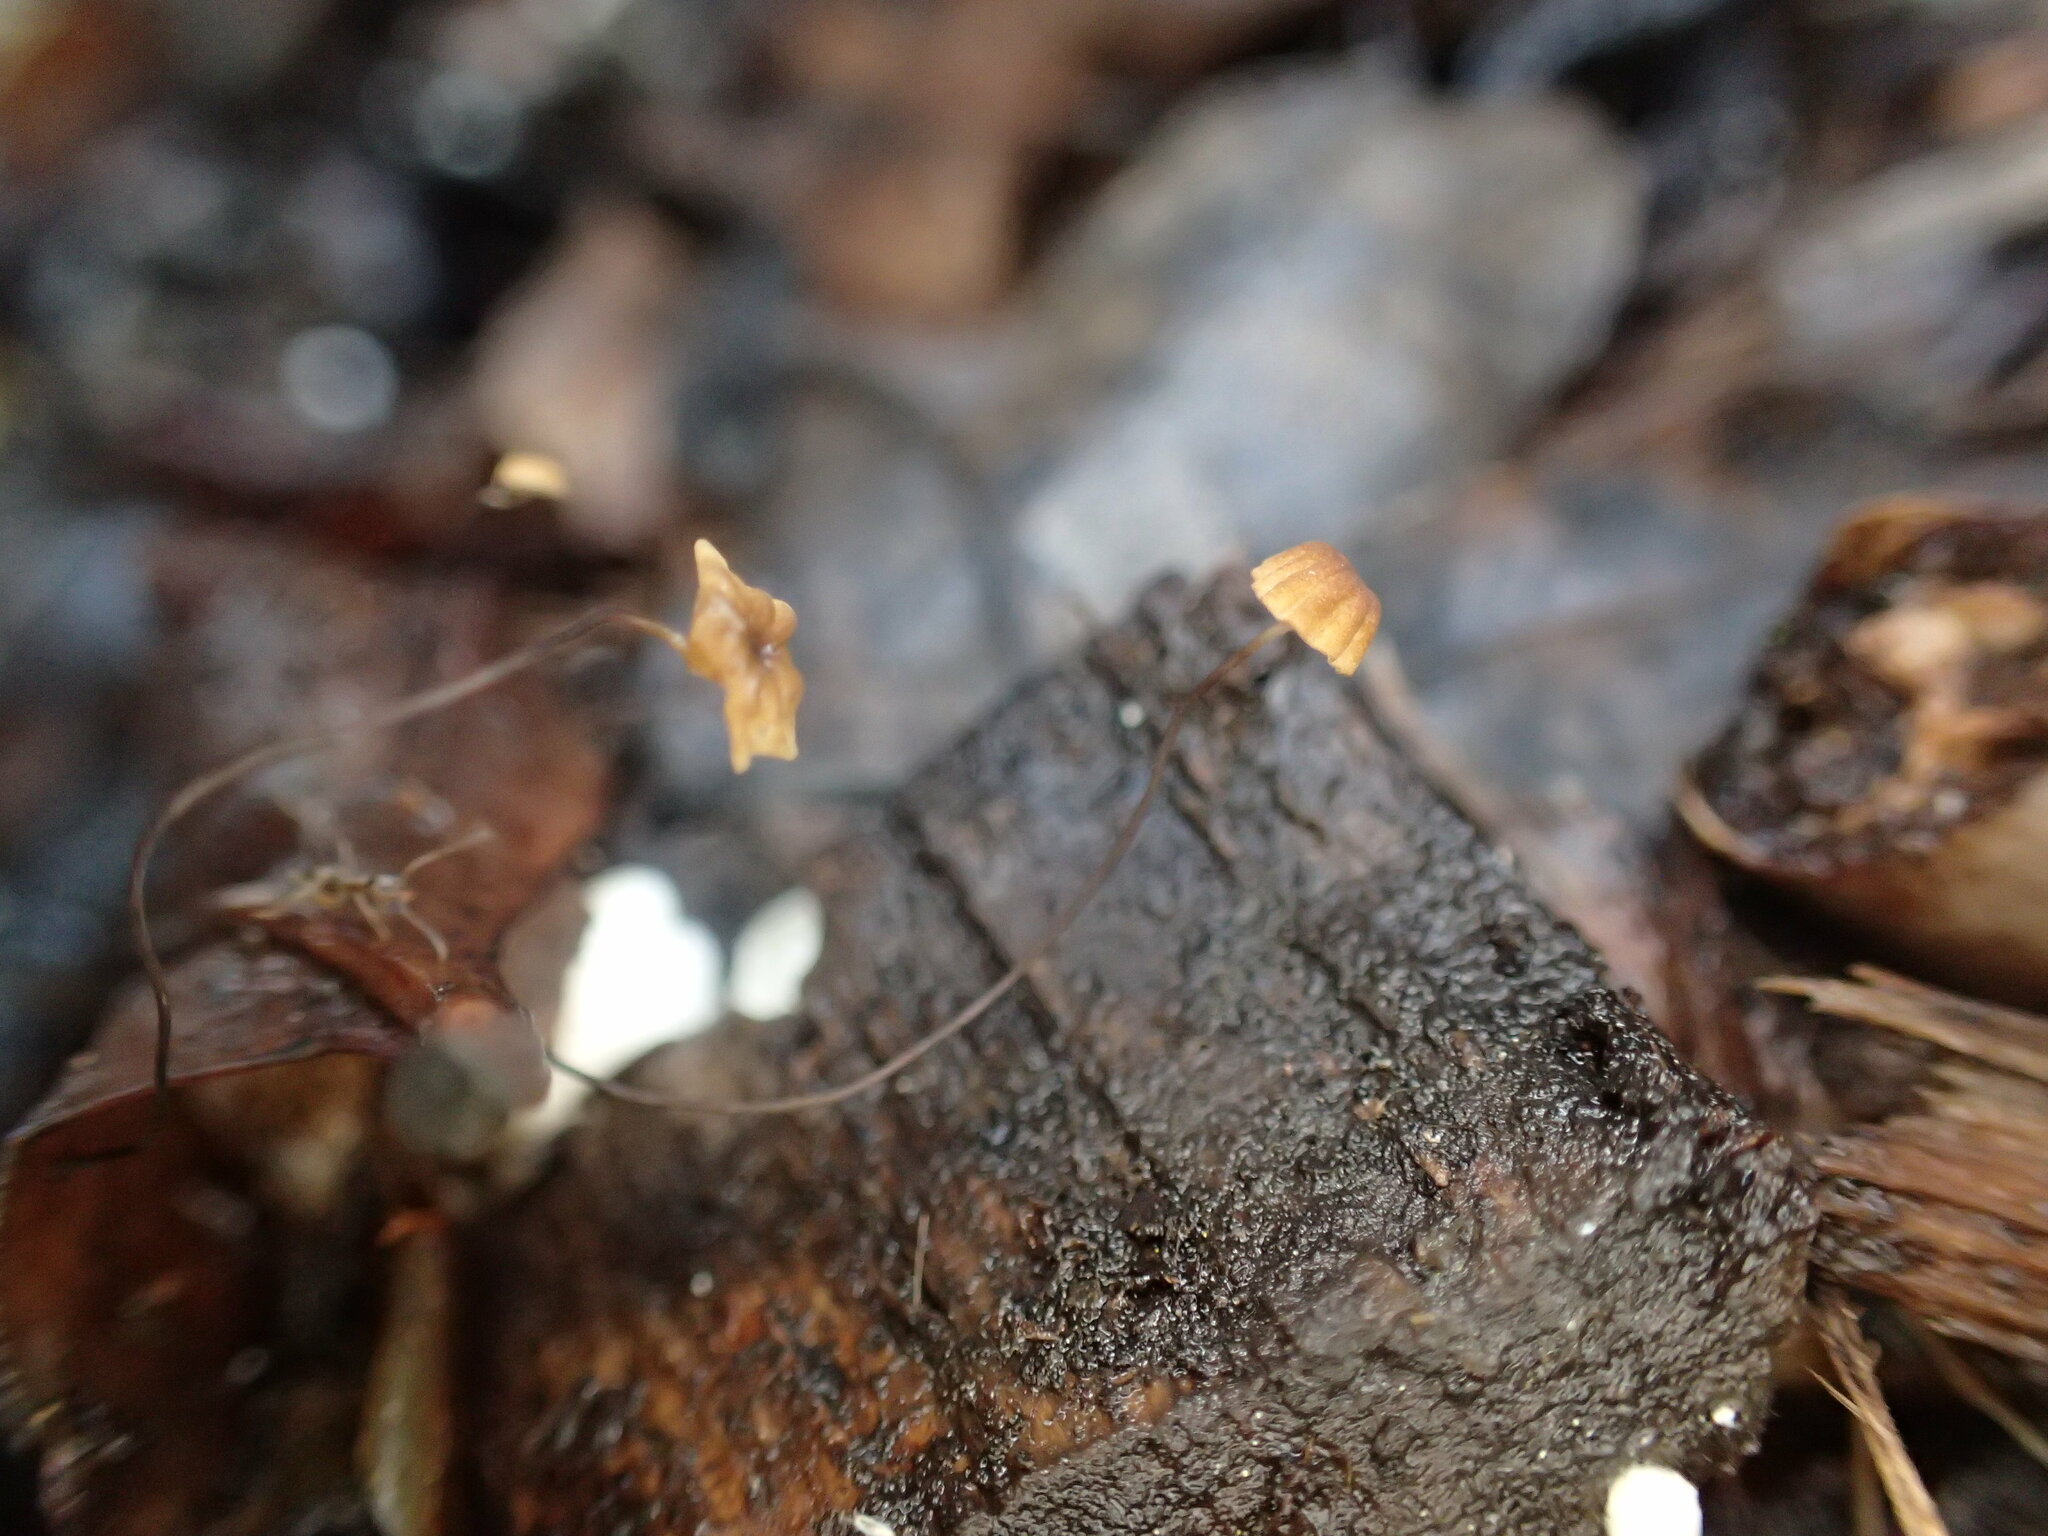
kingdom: Fungi
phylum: Basidiomycota
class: Agaricomycetes
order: Agaricales
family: Physalacriaceae
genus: Cryptomarasmius
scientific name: Cryptomarasmius corbariensis
